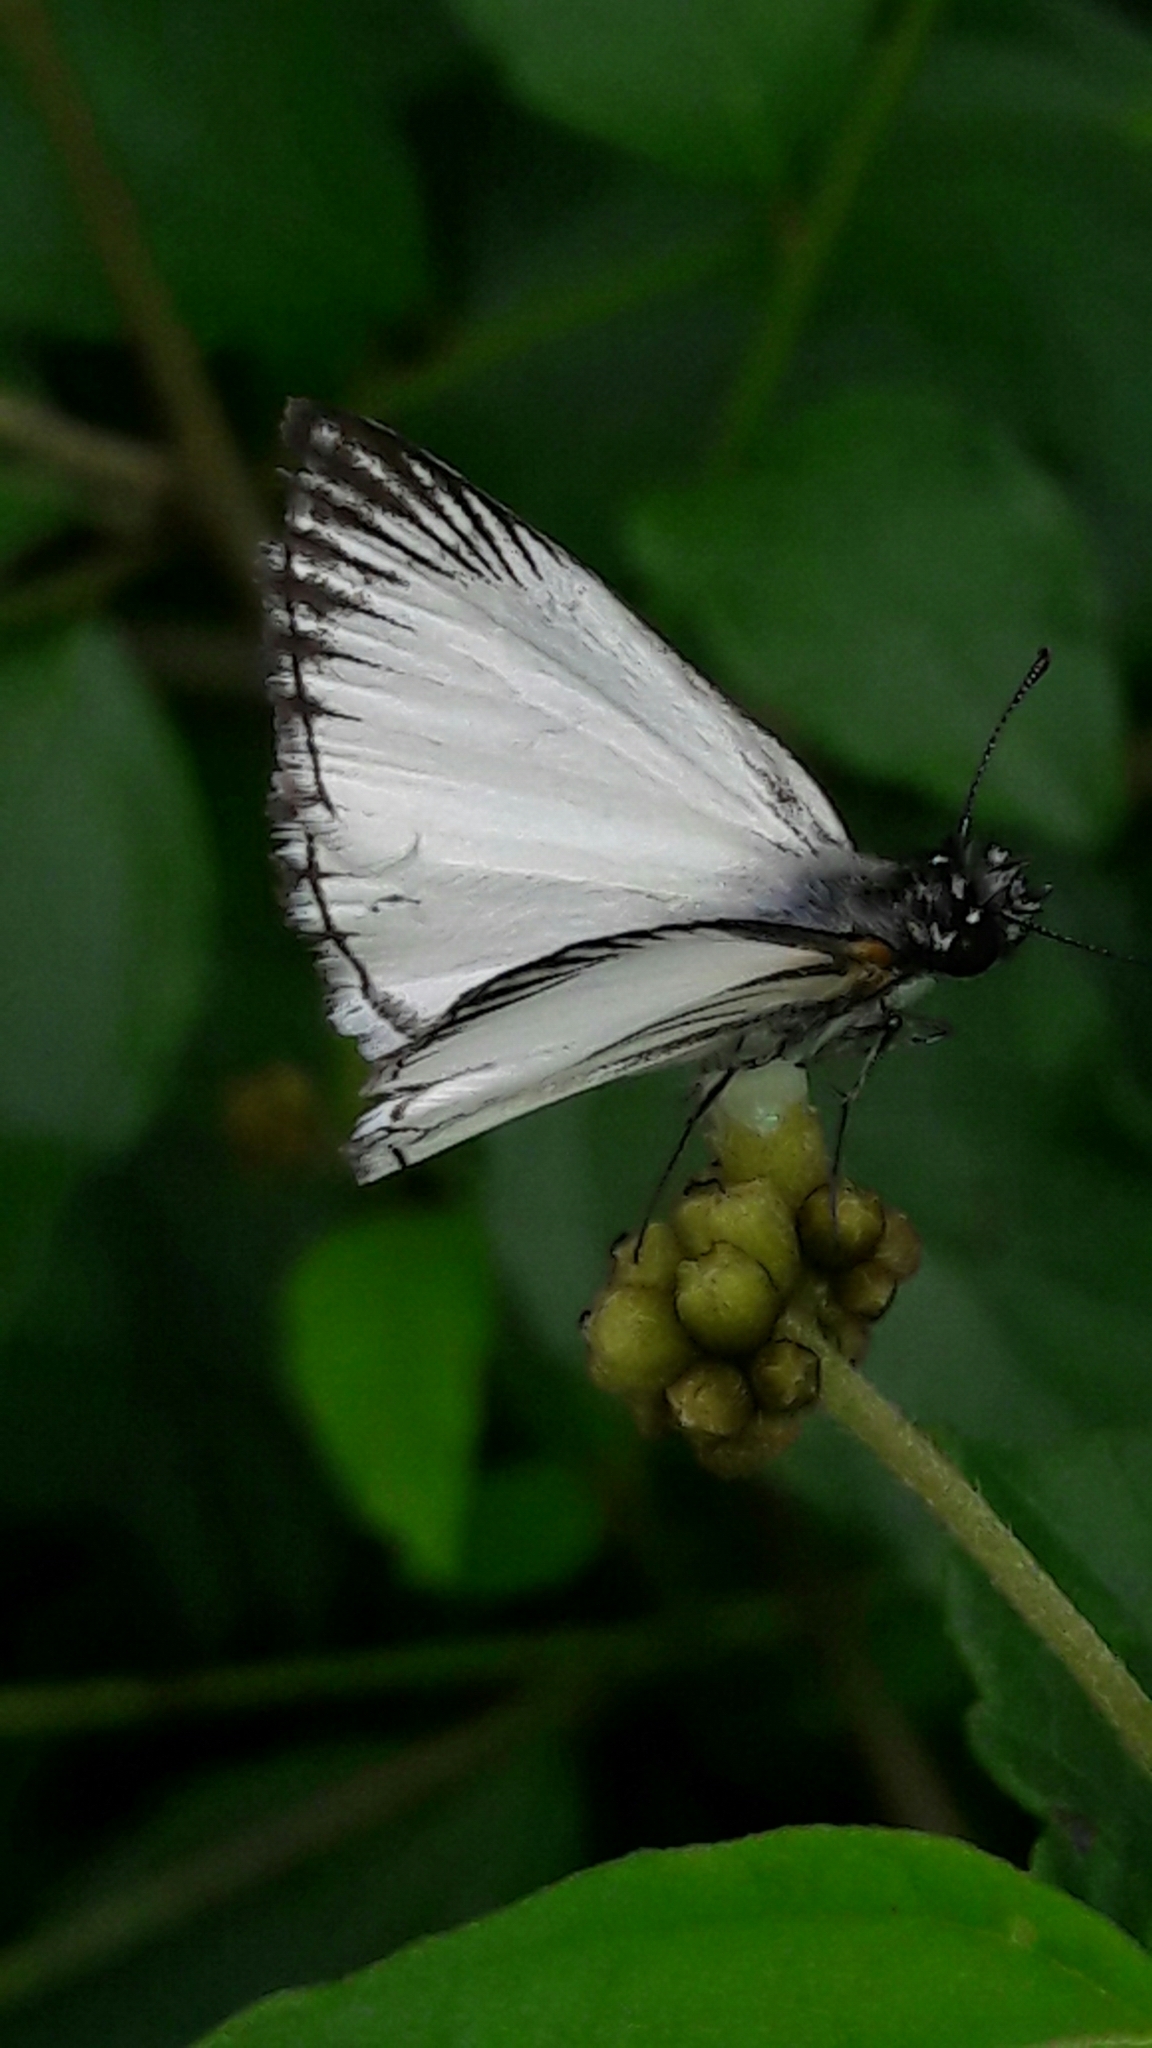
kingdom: Animalia
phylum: Arthropoda
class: Insecta
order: Lepidoptera
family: Hesperiidae
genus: Heliopetes
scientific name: Heliopetes arsalte
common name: Veined white-skipper
